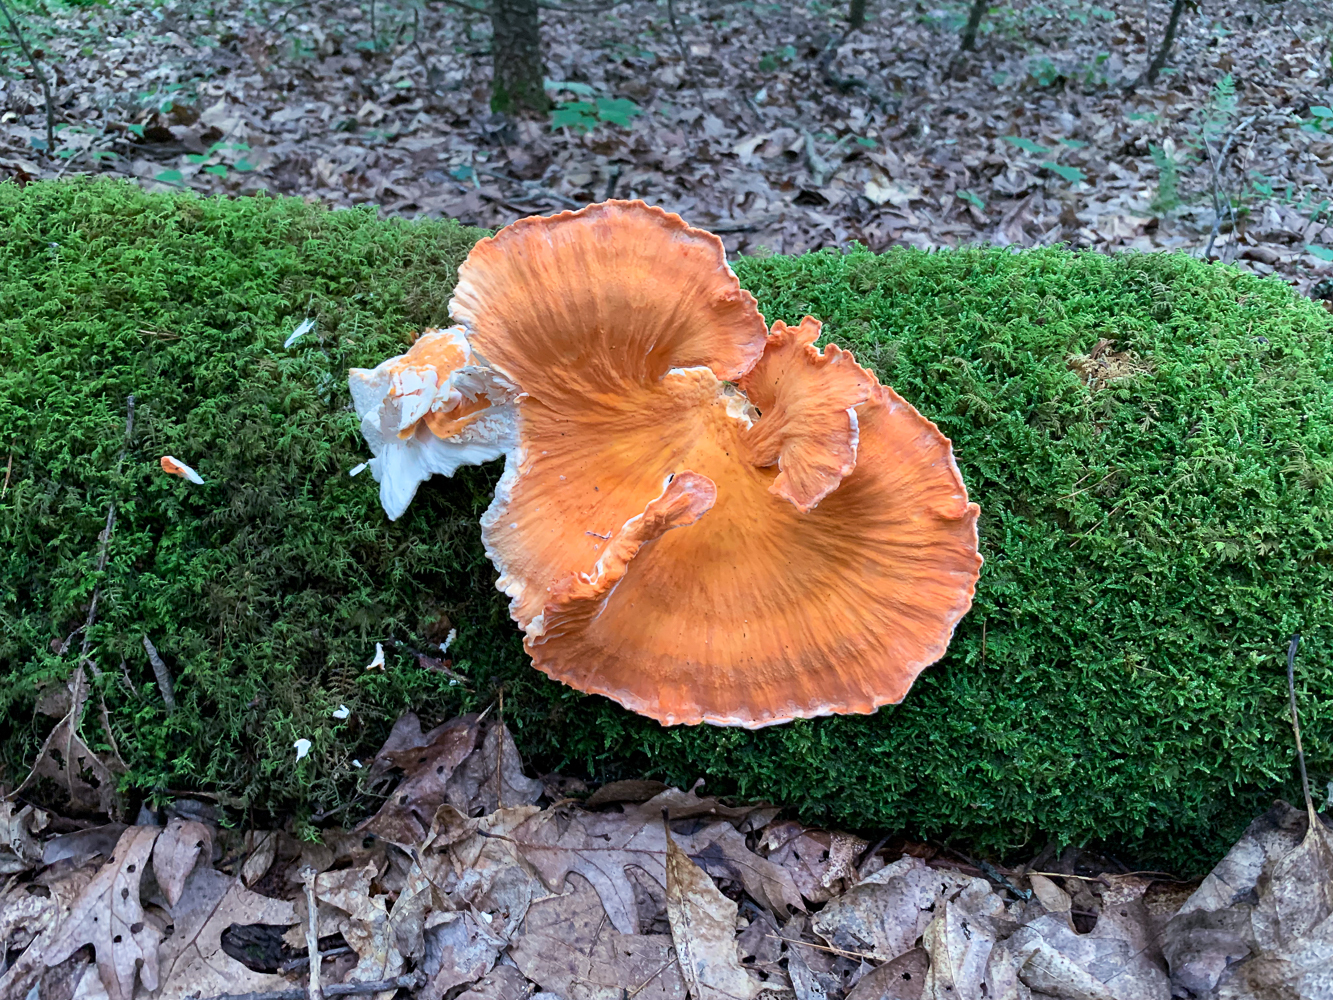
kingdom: Fungi
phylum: Basidiomycota
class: Agaricomycetes
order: Polyporales
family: Laetiporaceae
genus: Laetiporus
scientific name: Laetiporus sulphureus
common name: Chicken of the woods
